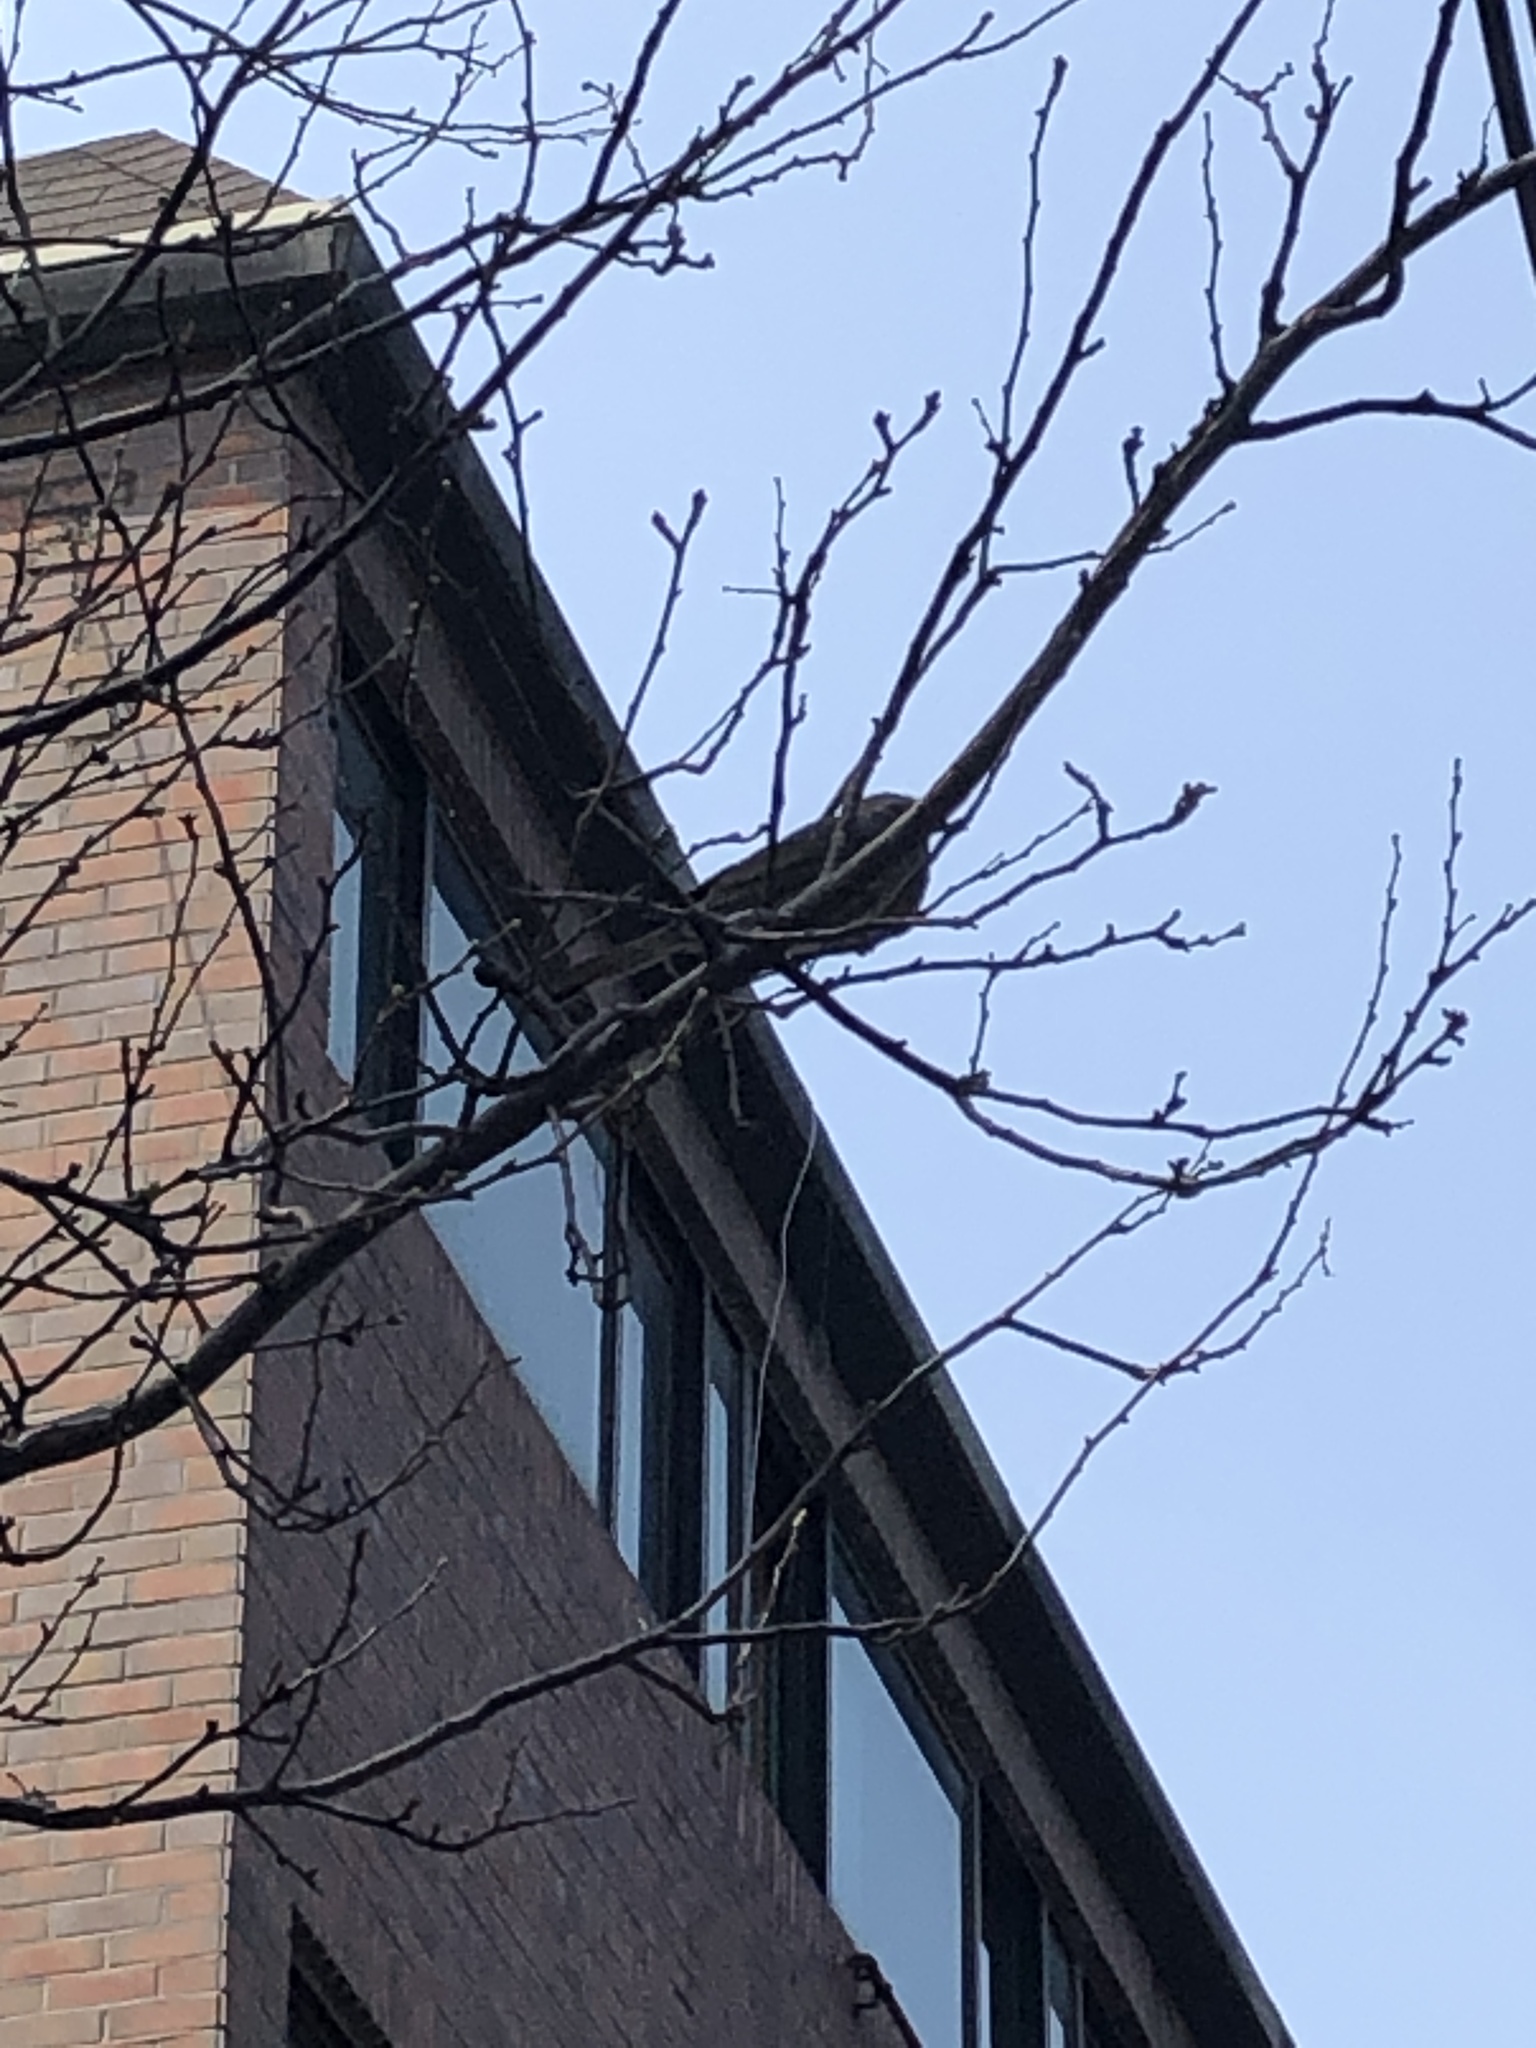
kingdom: Animalia
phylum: Chordata
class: Aves
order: Passeriformes
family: Pycnonotidae
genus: Hypsipetes
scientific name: Hypsipetes amaurotis
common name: Brown-eared bulbul
